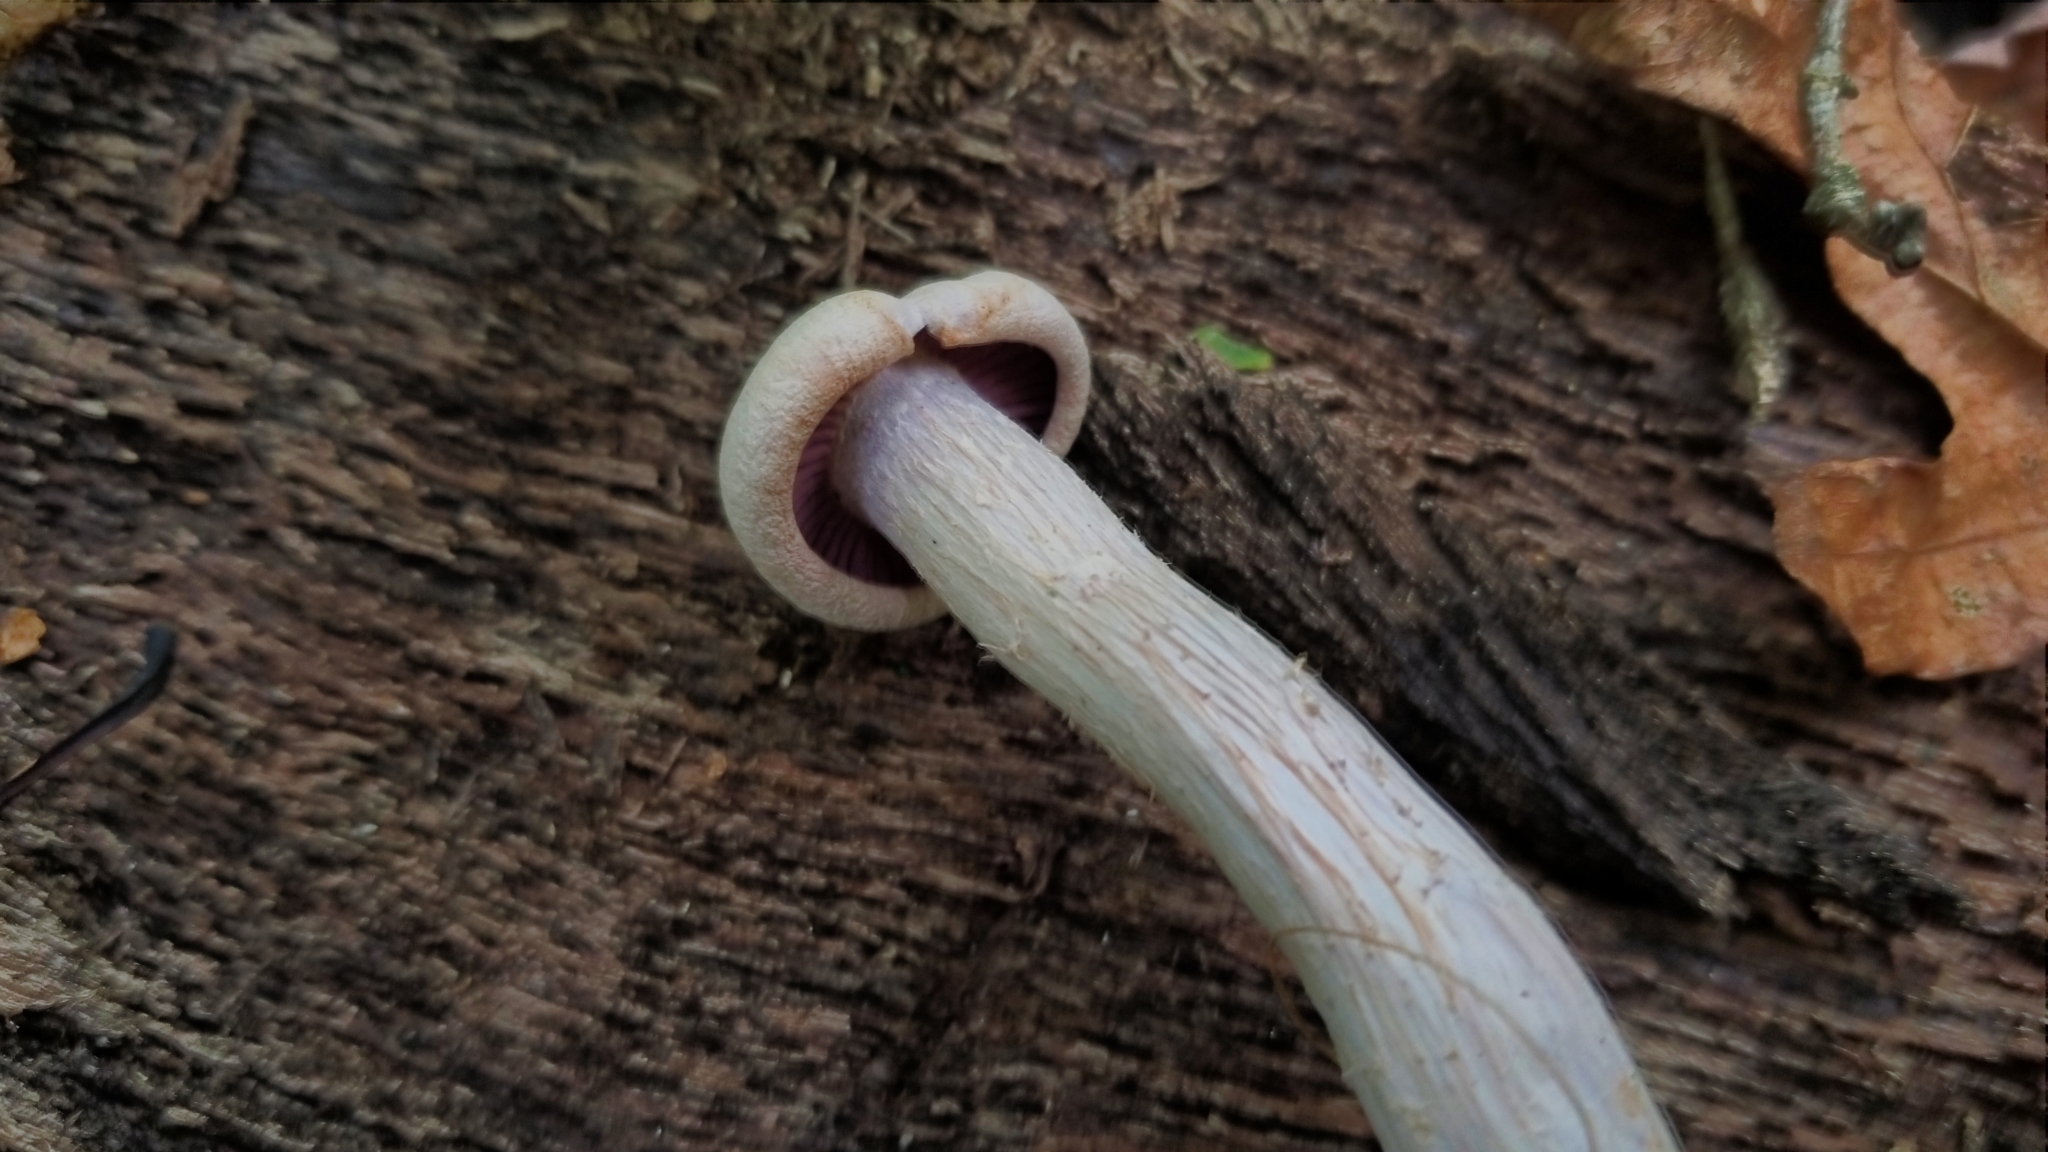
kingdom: Fungi
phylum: Basidiomycota
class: Agaricomycetes
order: Agaricales
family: Hydnangiaceae
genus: Laccaria
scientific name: Laccaria ochropurpurea
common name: Purple laccaria
